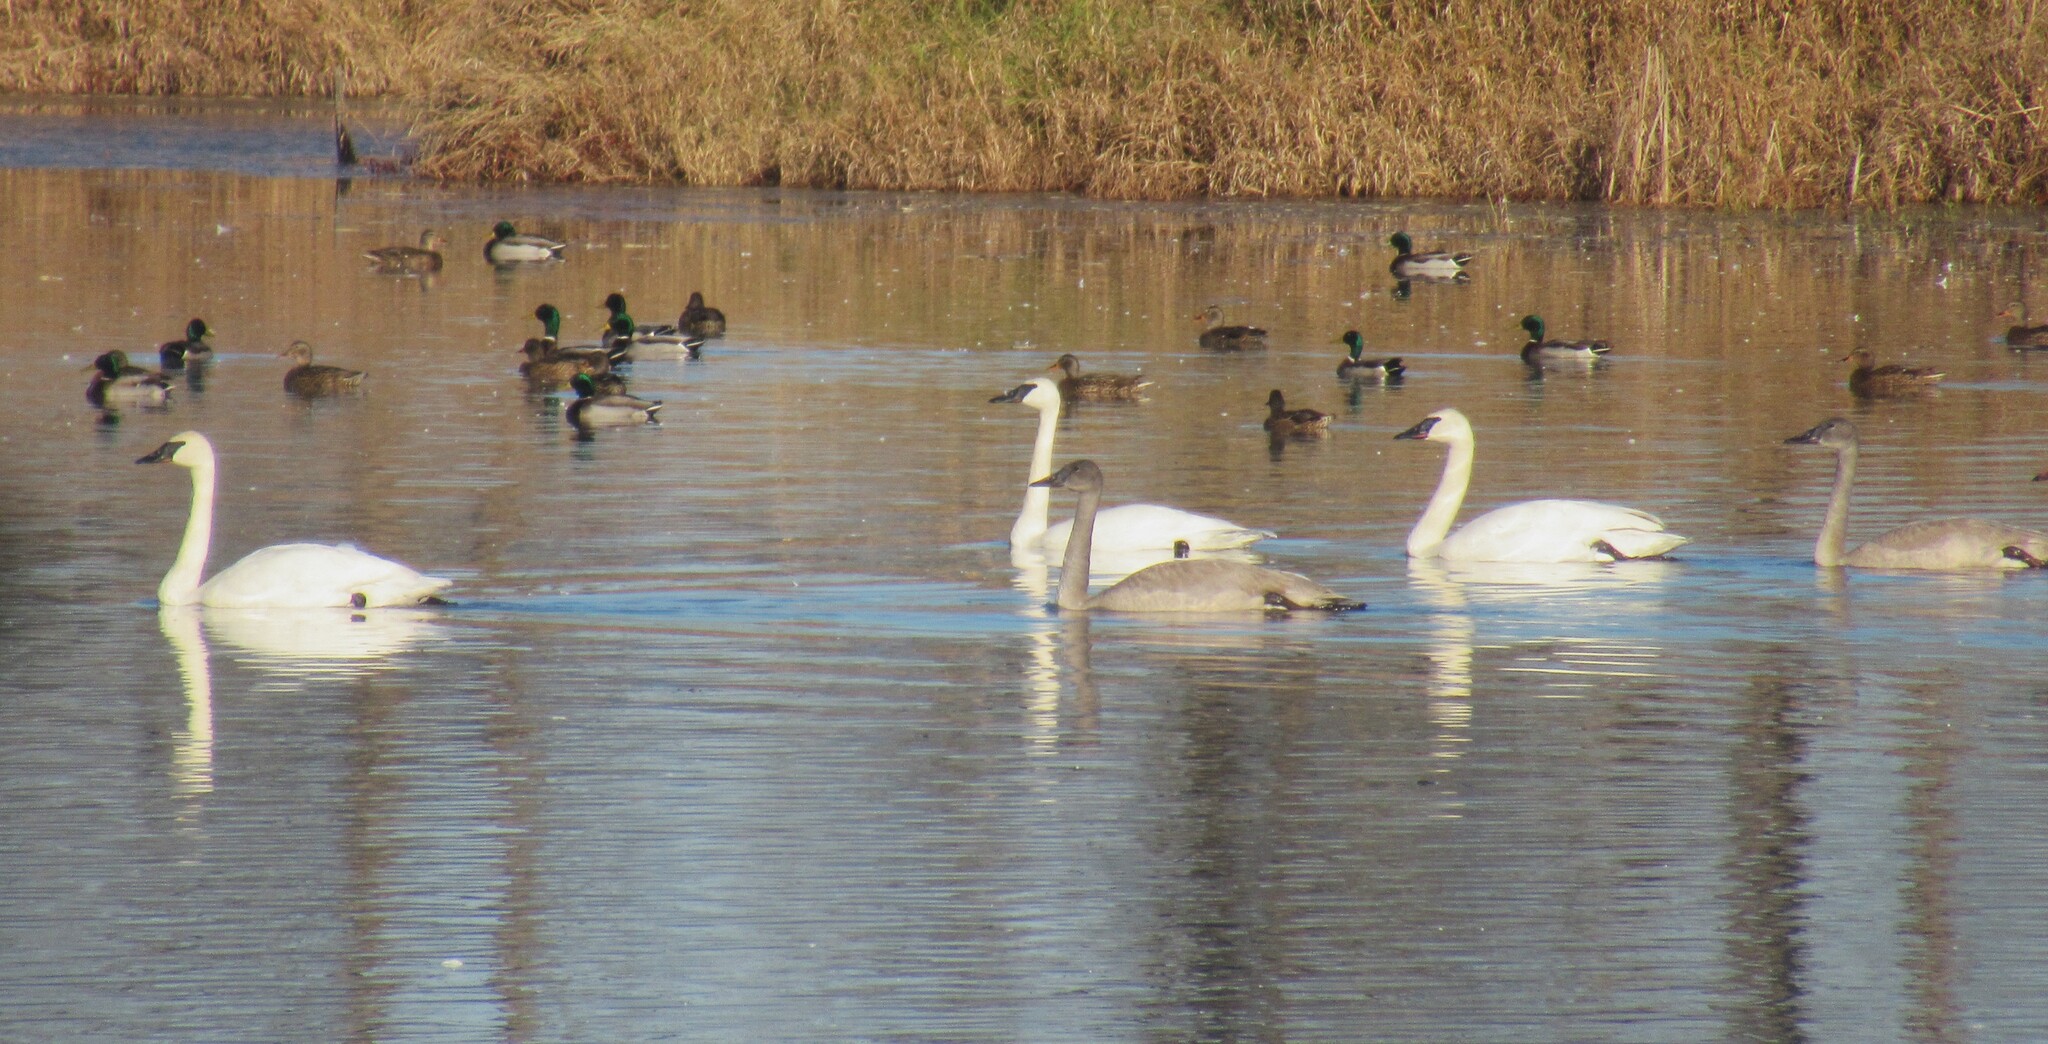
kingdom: Animalia
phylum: Chordata
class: Aves
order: Anseriformes
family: Anatidae
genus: Cygnus
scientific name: Cygnus buccinator
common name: Trumpeter swan
